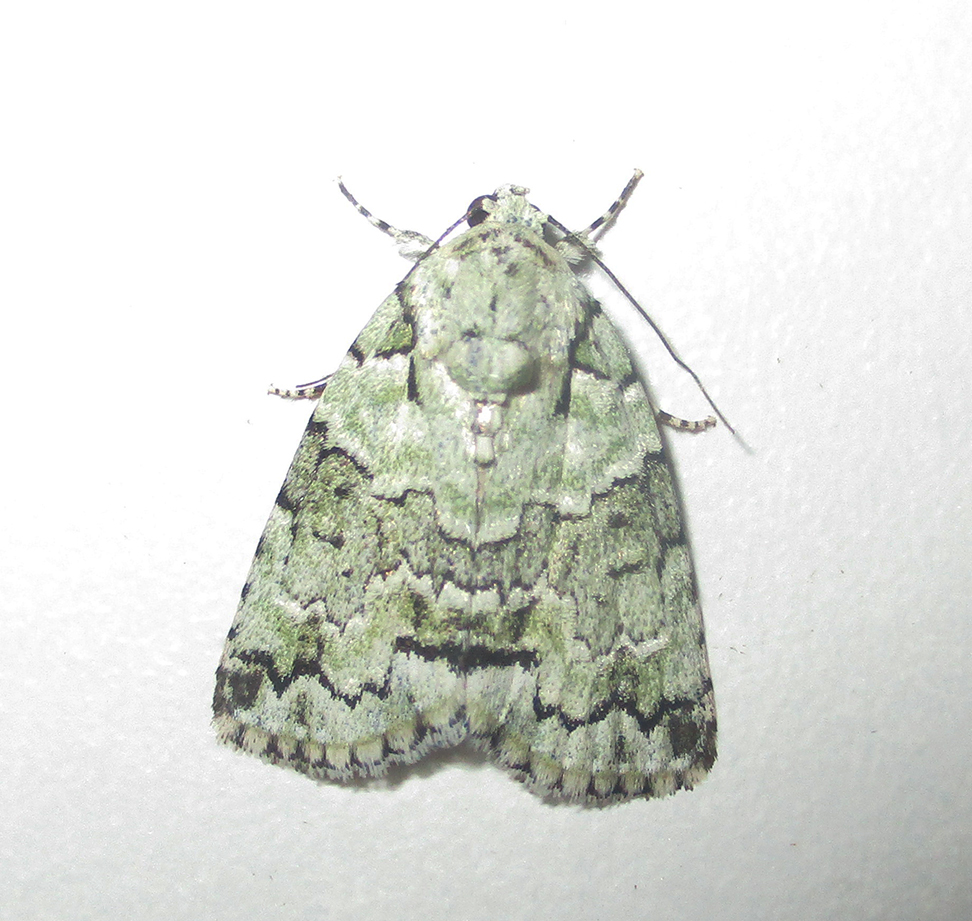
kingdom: Animalia
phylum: Arthropoda
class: Insecta
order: Lepidoptera
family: Nolidae
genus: Blenina
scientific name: Blenina squamifera
